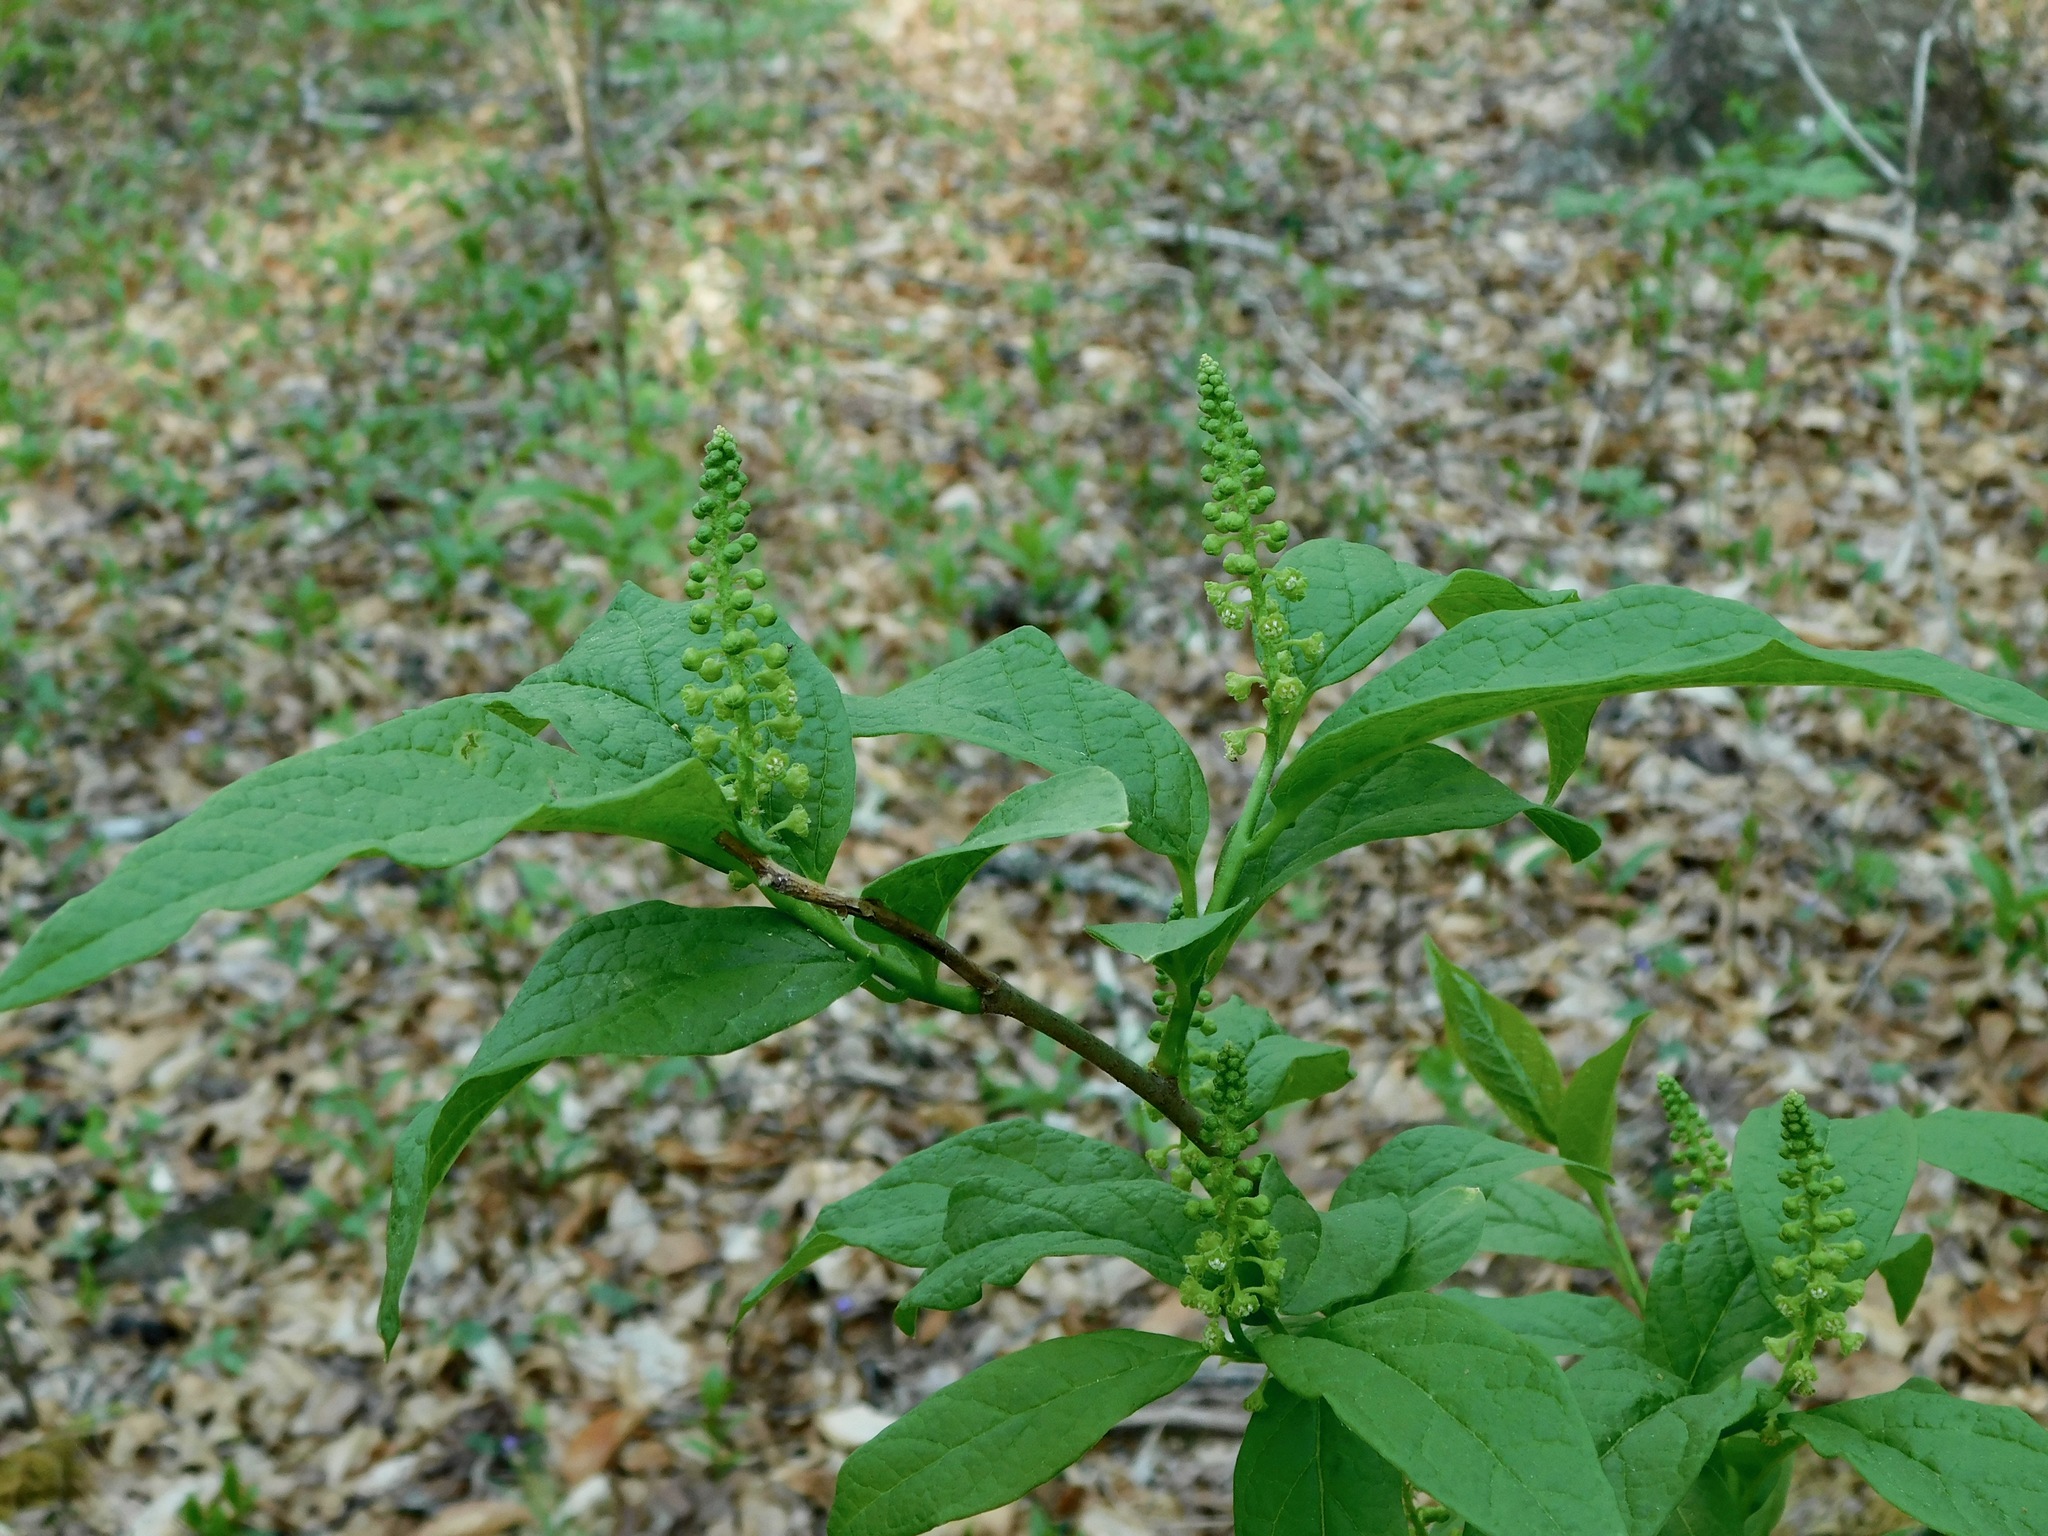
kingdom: Plantae
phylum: Tracheophyta
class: Magnoliopsida
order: Santalales
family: Cervantesiaceae
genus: Pyrularia
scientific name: Pyrularia pubera
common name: Oilnut
